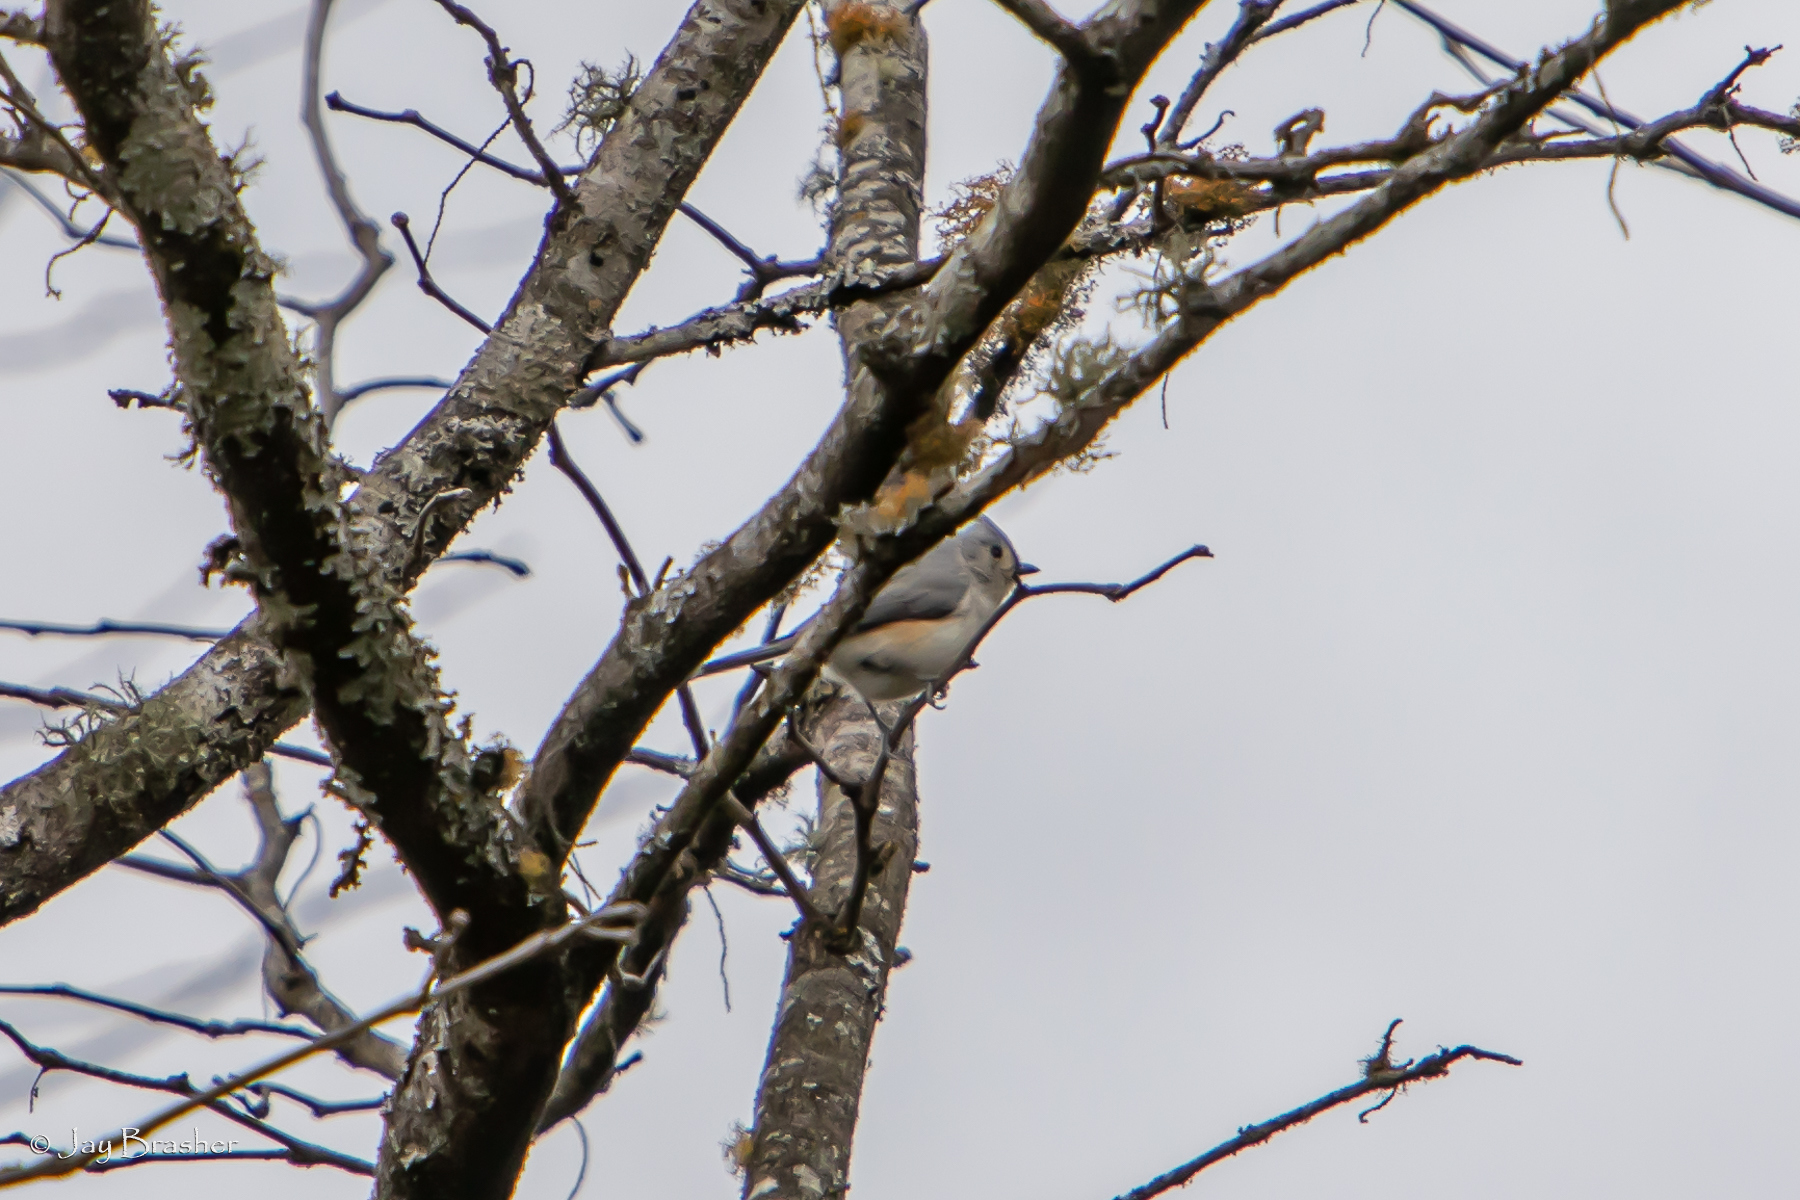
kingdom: Animalia
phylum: Chordata
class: Aves
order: Passeriformes
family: Paridae
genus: Baeolophus
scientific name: Baeolophus bicolor
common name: Tufted titmouse
